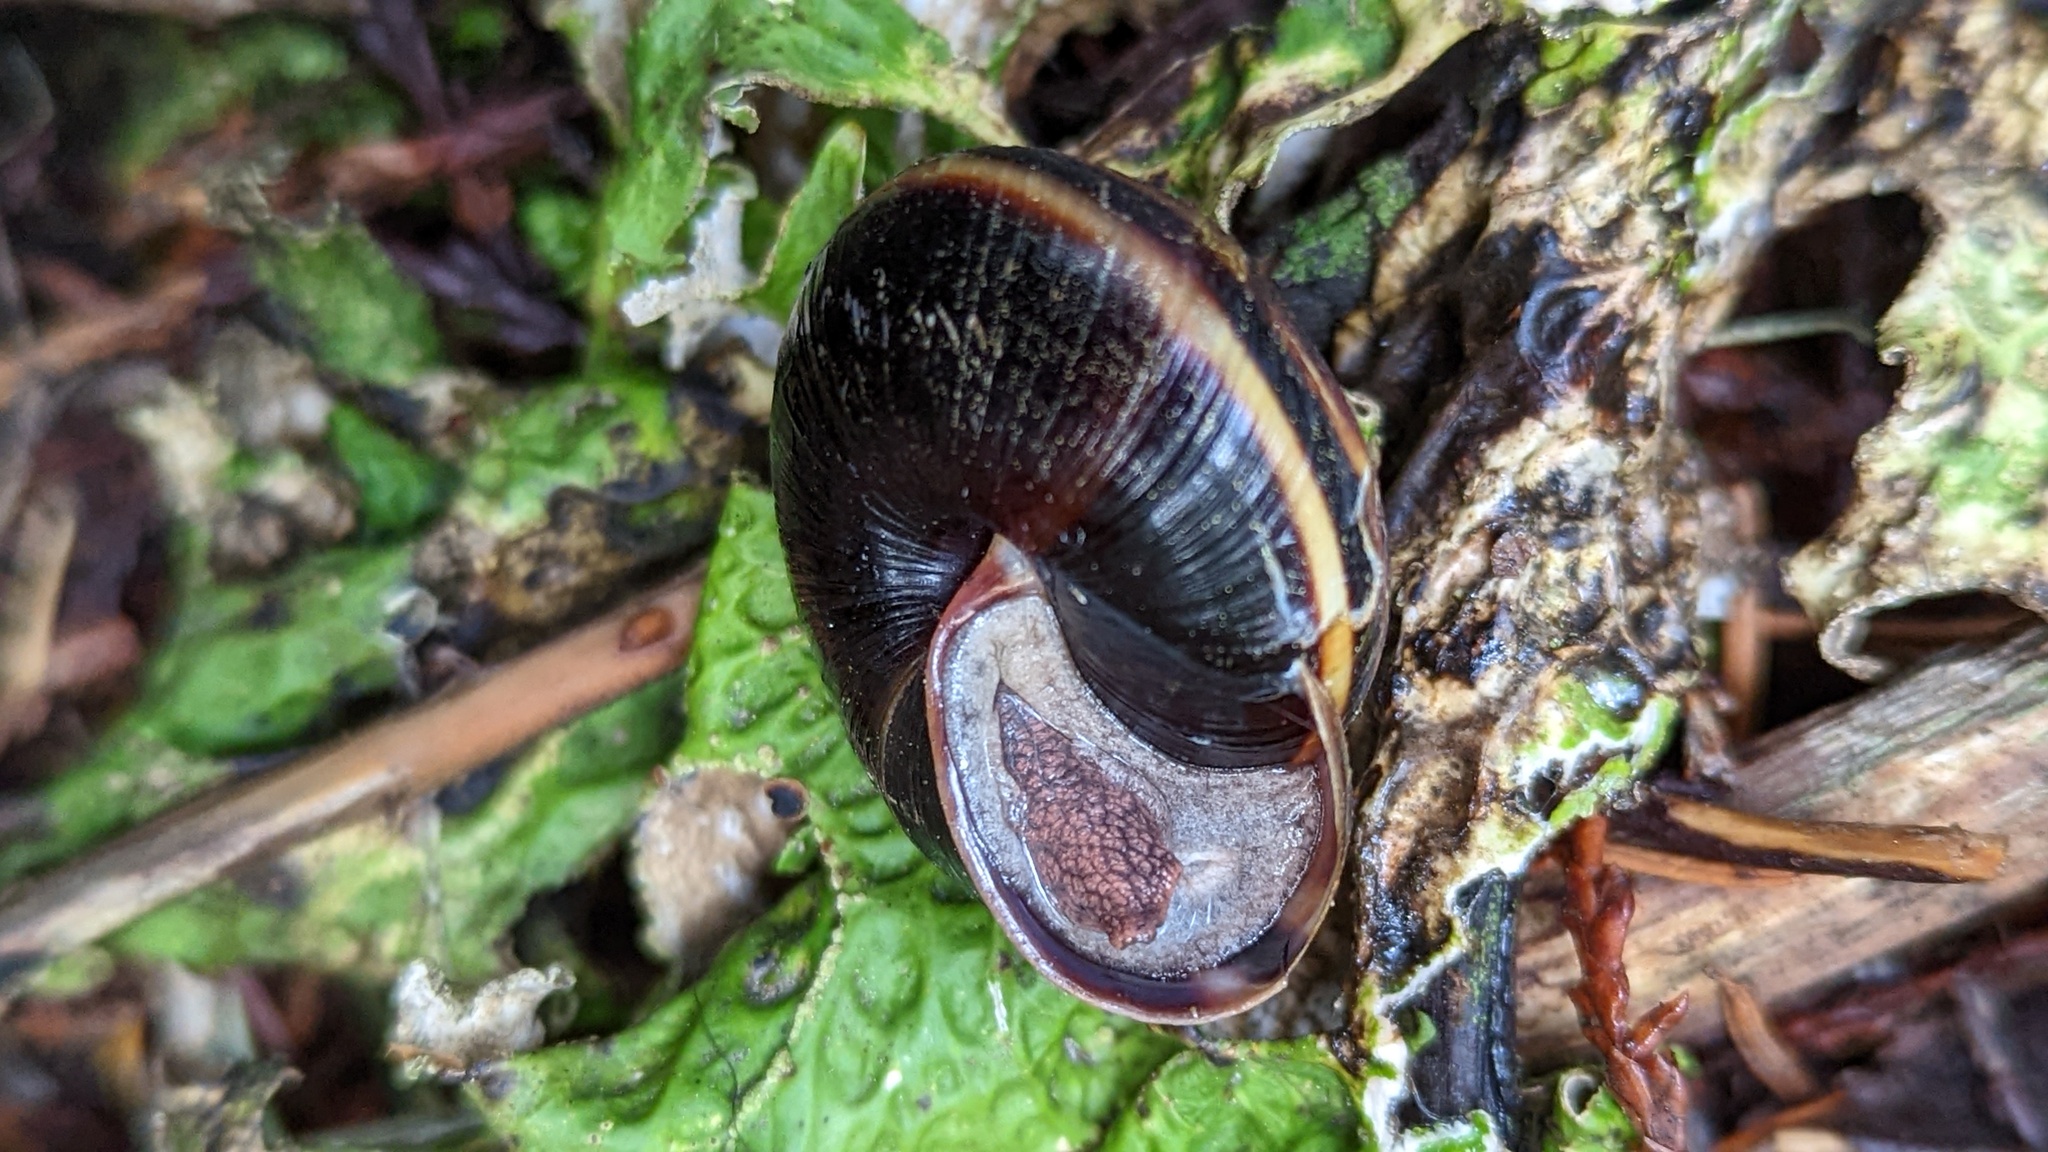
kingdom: Animalia
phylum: Mollusca
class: Gastropoda
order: Stylommatophora
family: Xanthonychidae
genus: Monadenia
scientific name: Monadenia fidelis
